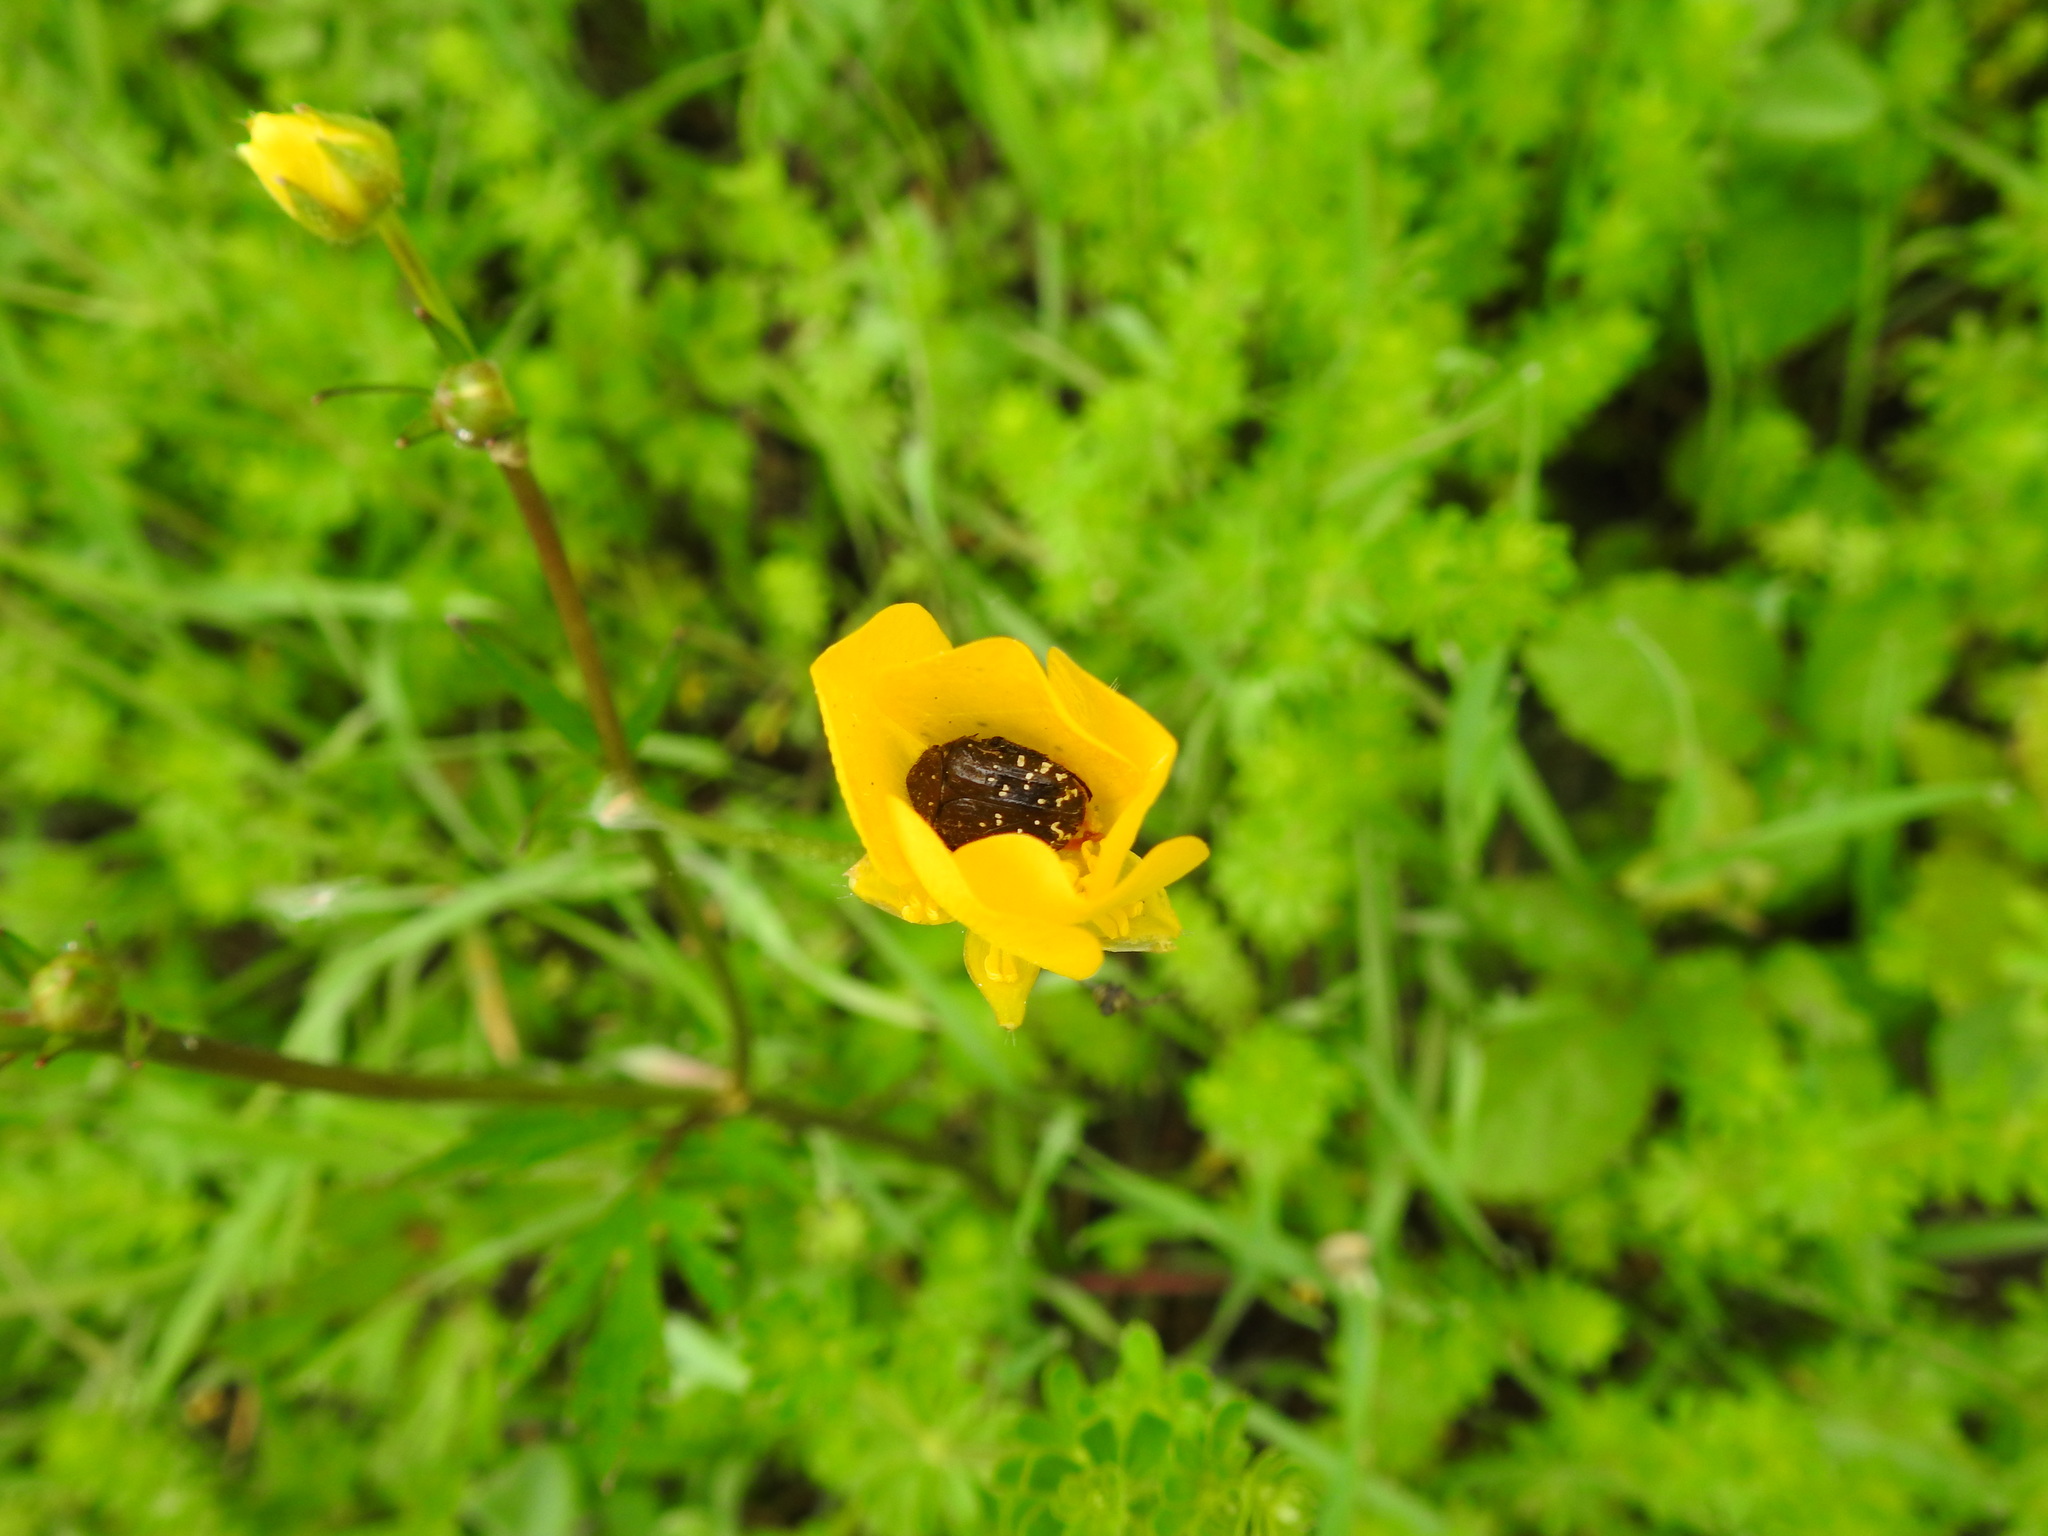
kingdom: Animalia
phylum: Arthropoda
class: Insecta
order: Coleoptera
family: Scarabaeidae
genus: Oxythyrea
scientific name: Oxythyrea funesta
